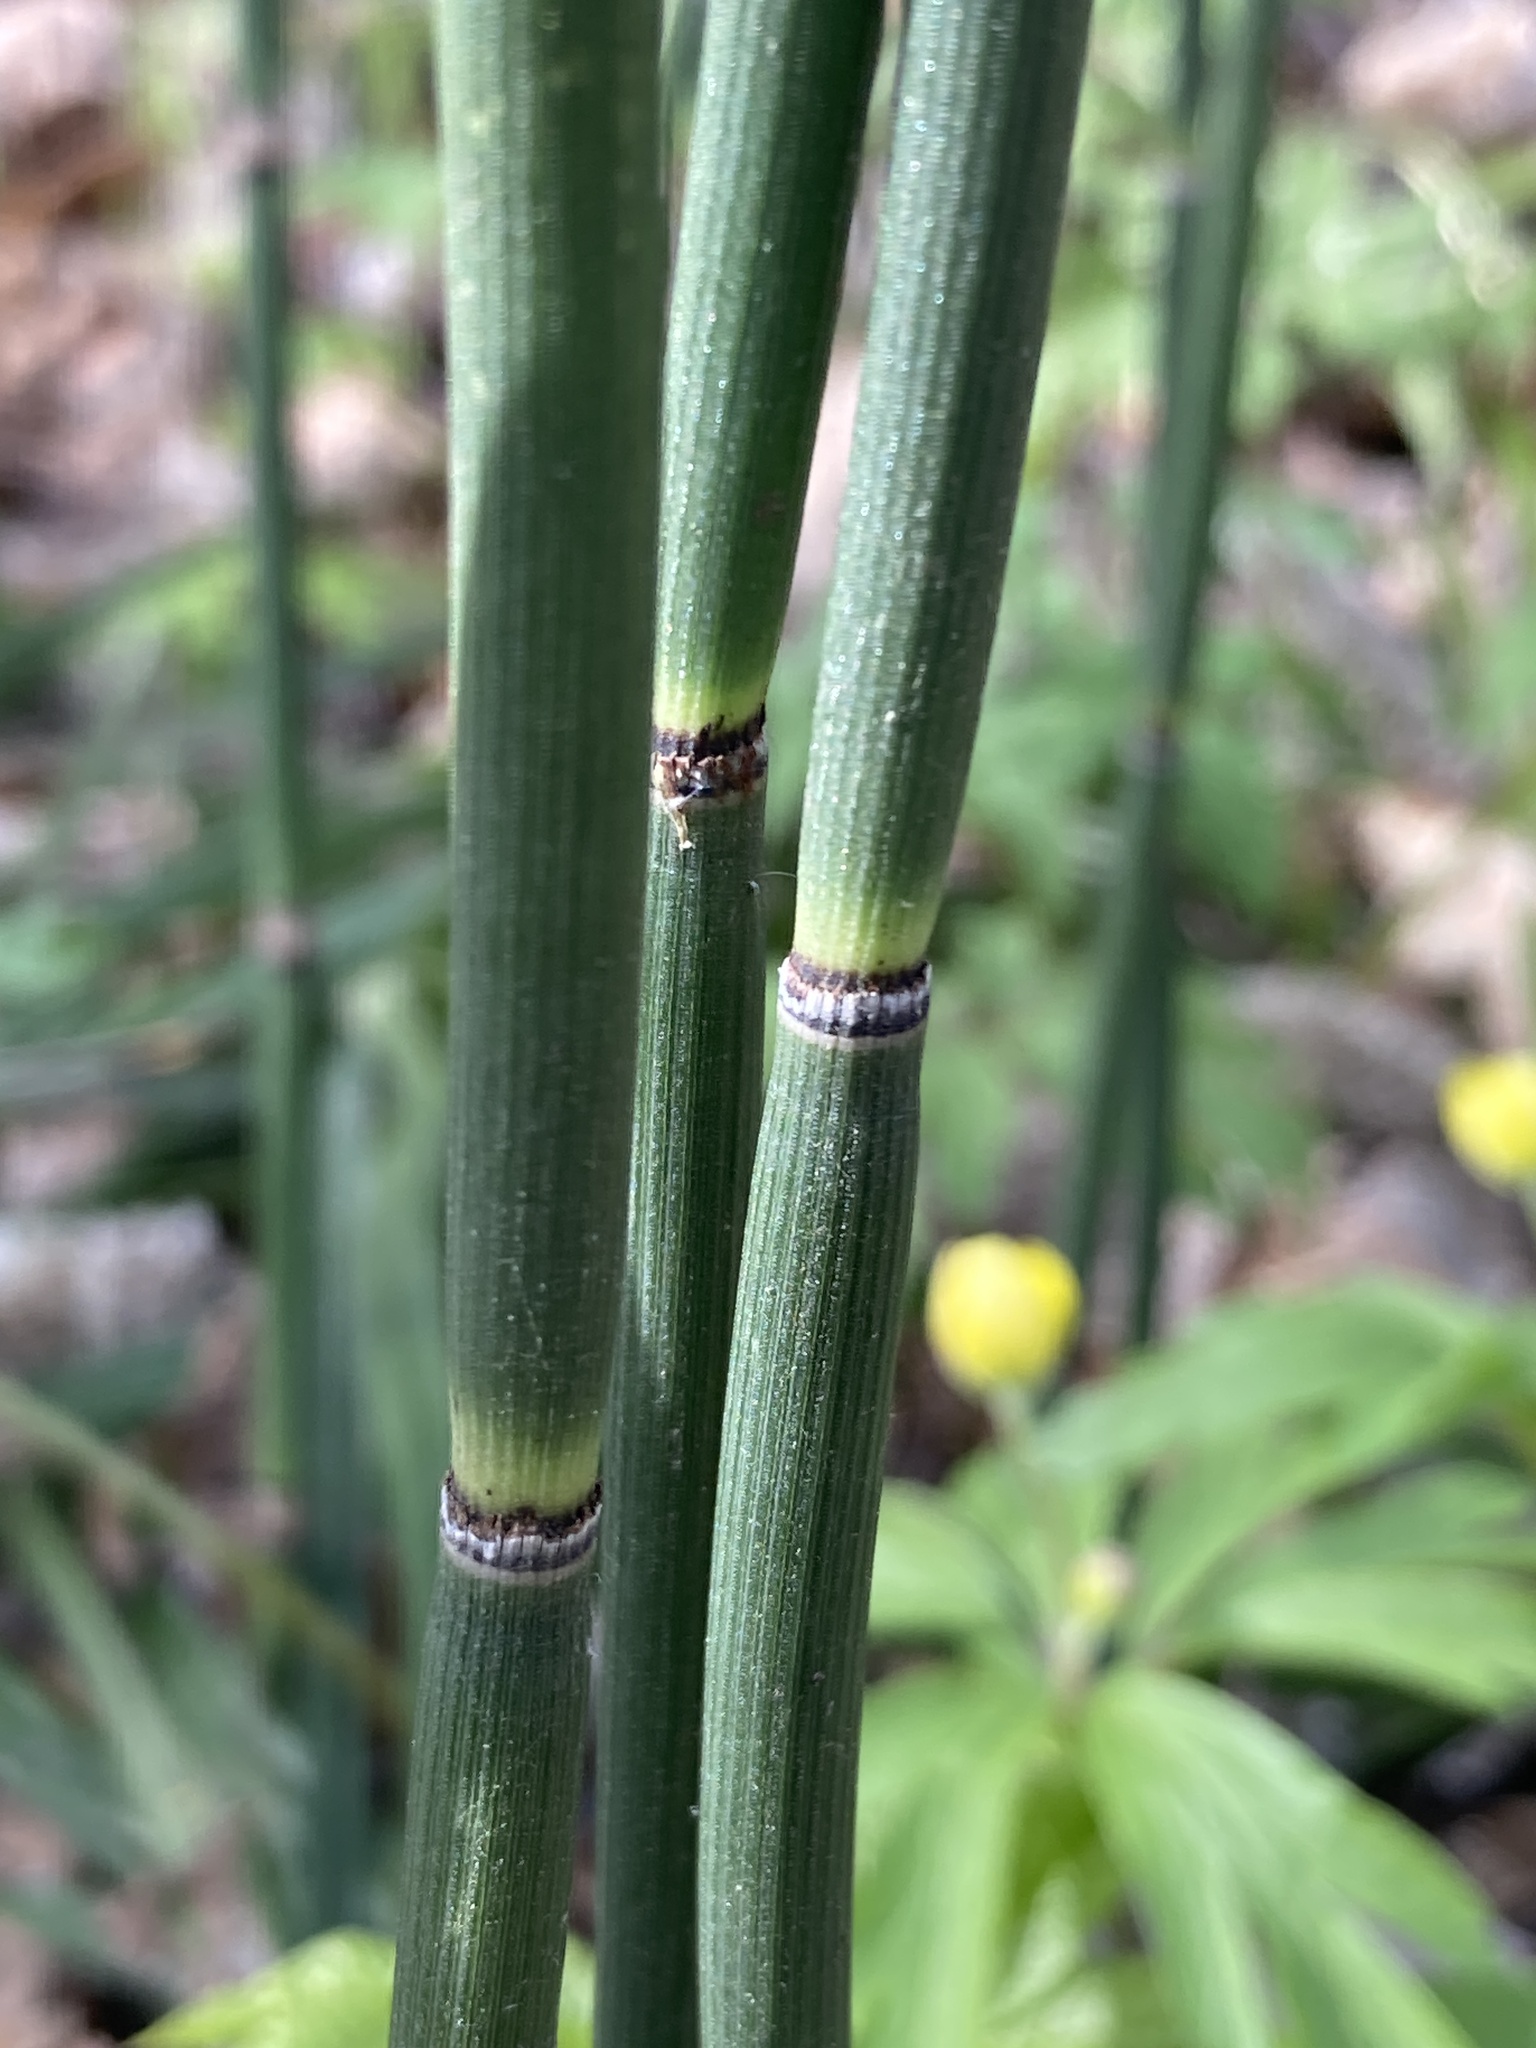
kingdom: Plantae
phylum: Tracheophyta
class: Polypodiopsida
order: Equisetales
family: Equisetaceae
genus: Equisetum
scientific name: Equisetum hyemale
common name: Rough horsetail
